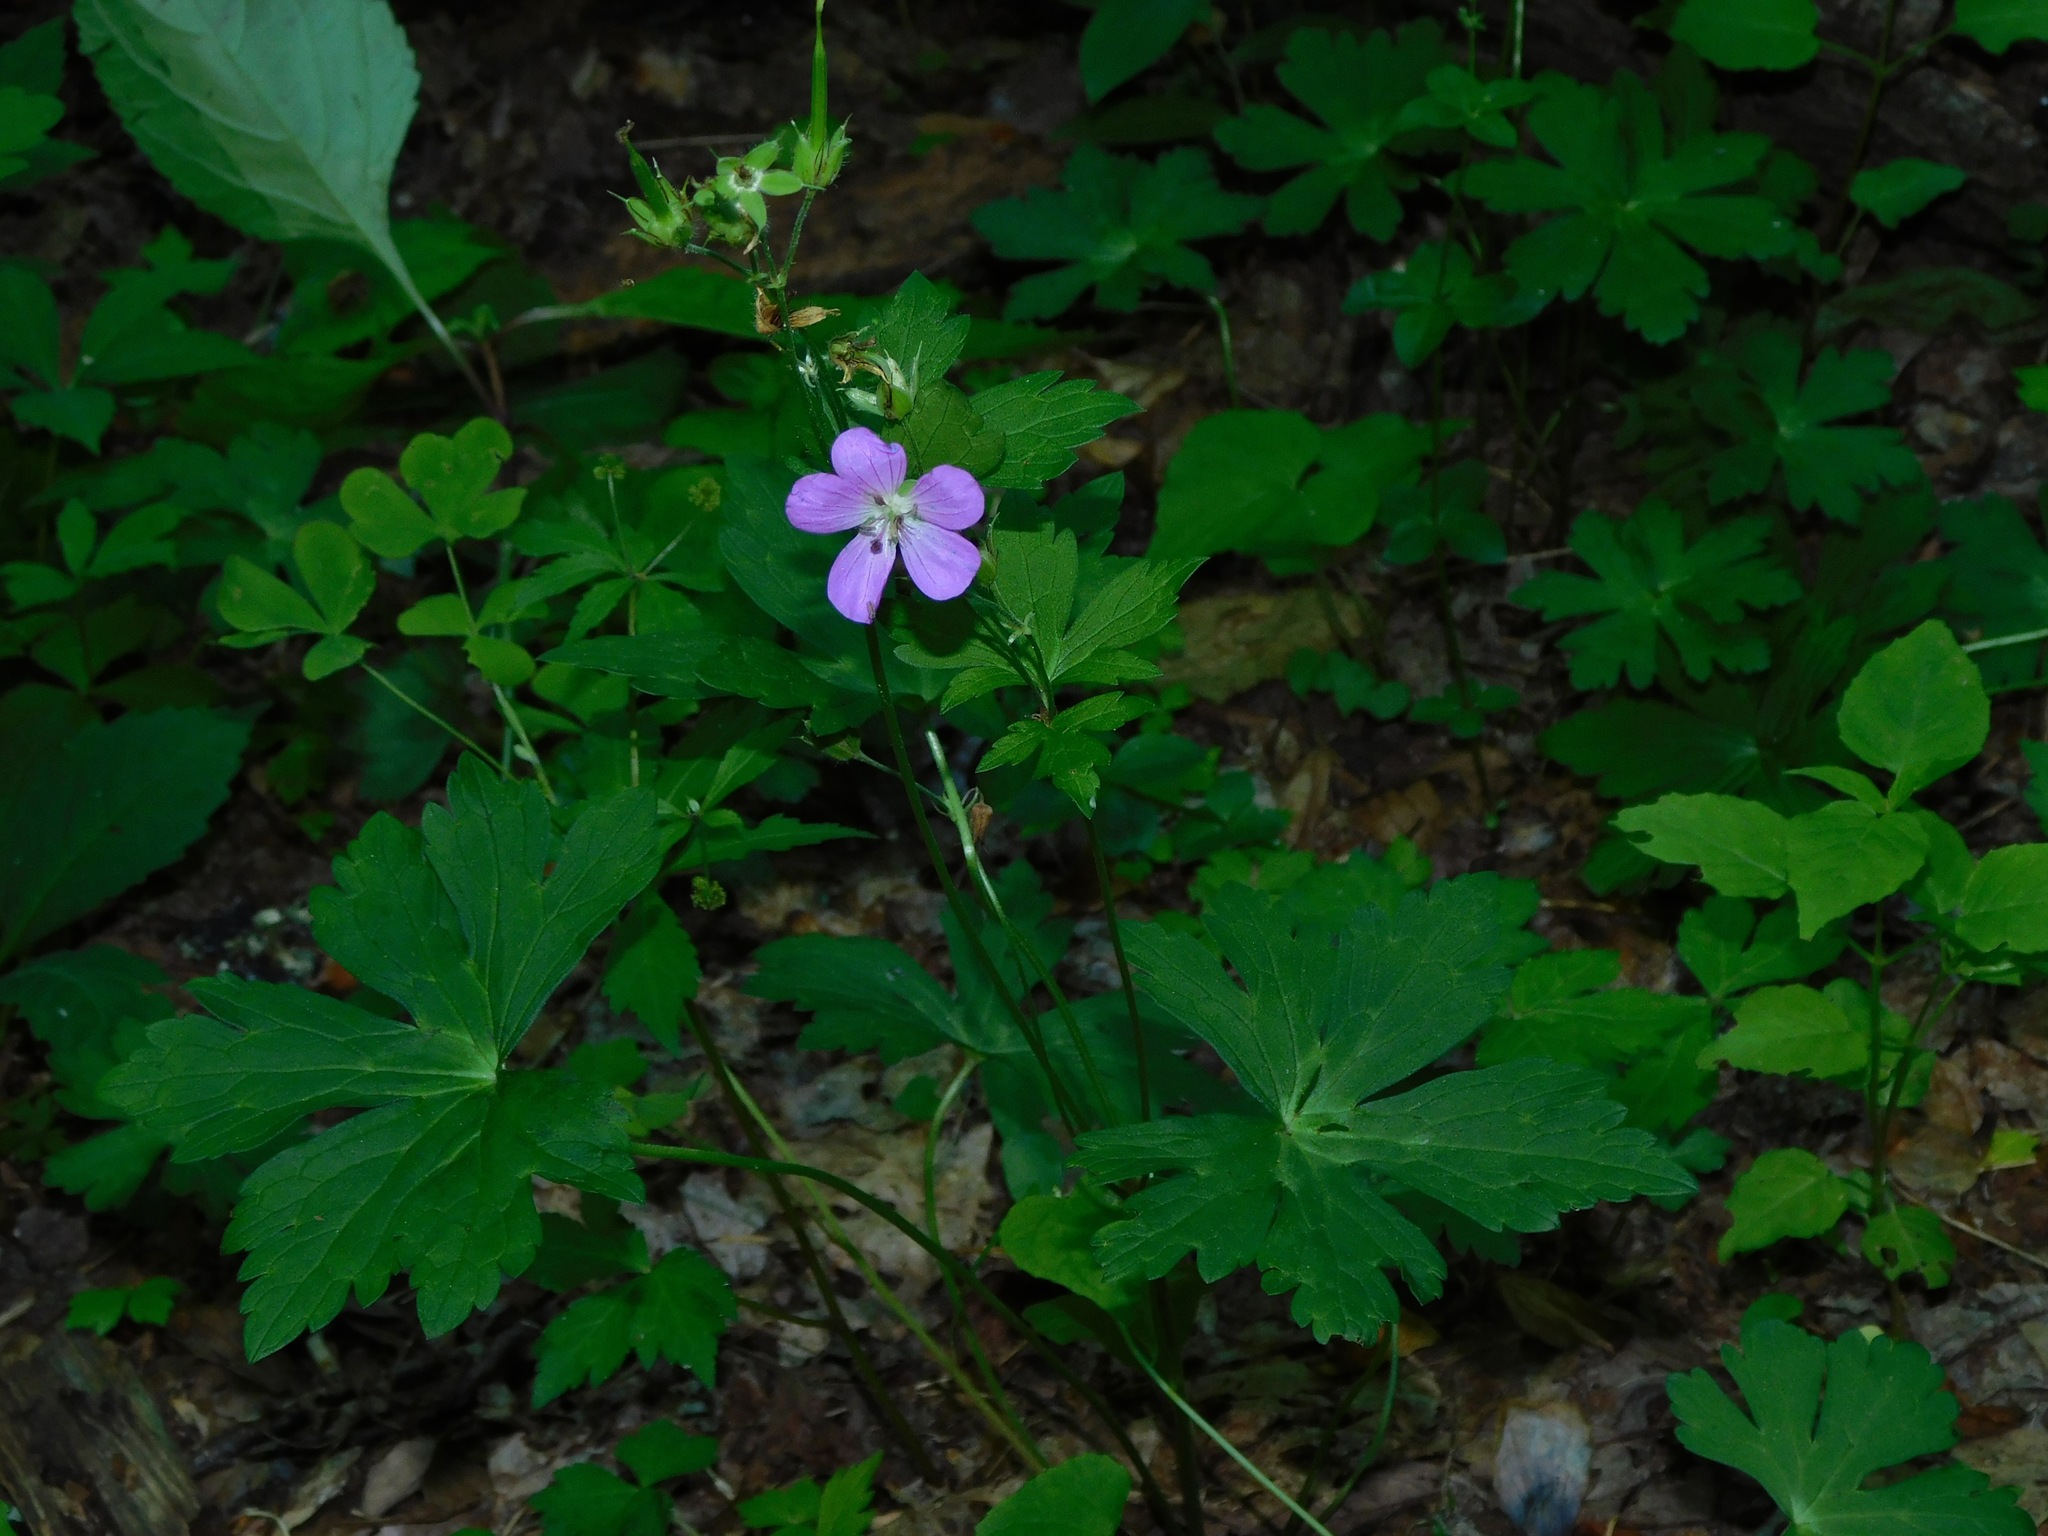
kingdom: Plantae
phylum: Tracheophyta
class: Magnoliopsida
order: Geraniales
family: Geraniaceae
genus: Geranium
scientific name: Geranium maculatum
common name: Spotted geranium
